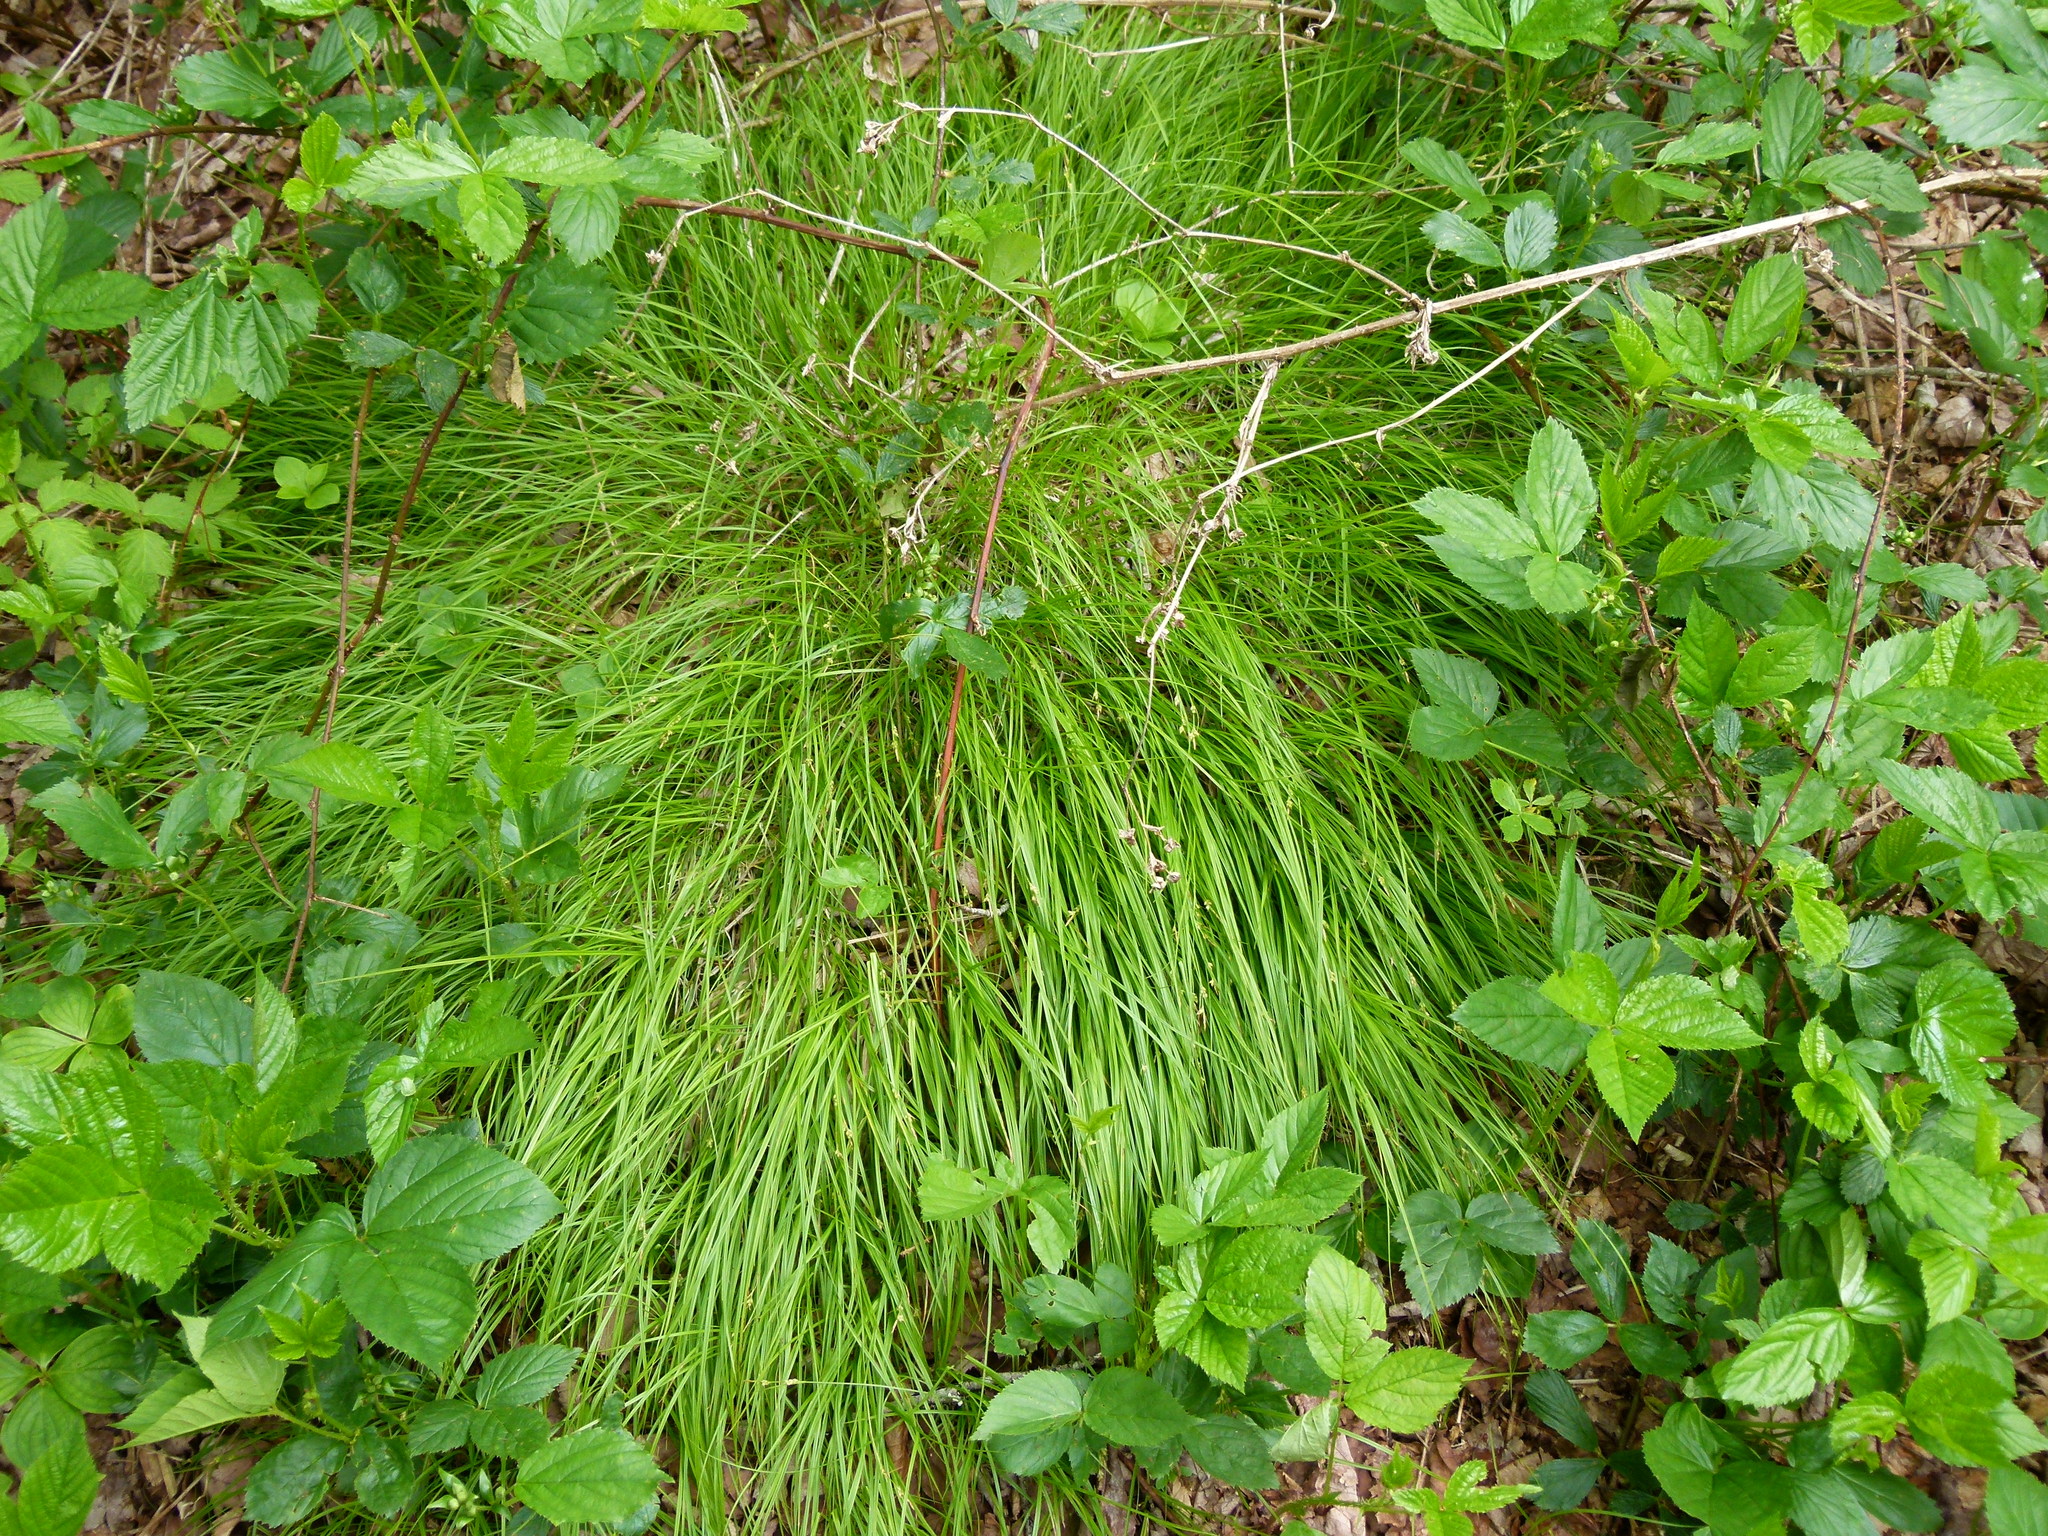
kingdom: Plantae
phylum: Tracheophyta
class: Liliopsida
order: Poales
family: Cyperaceae
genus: Carex
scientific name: Carex novae-angliae
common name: New england sedge
